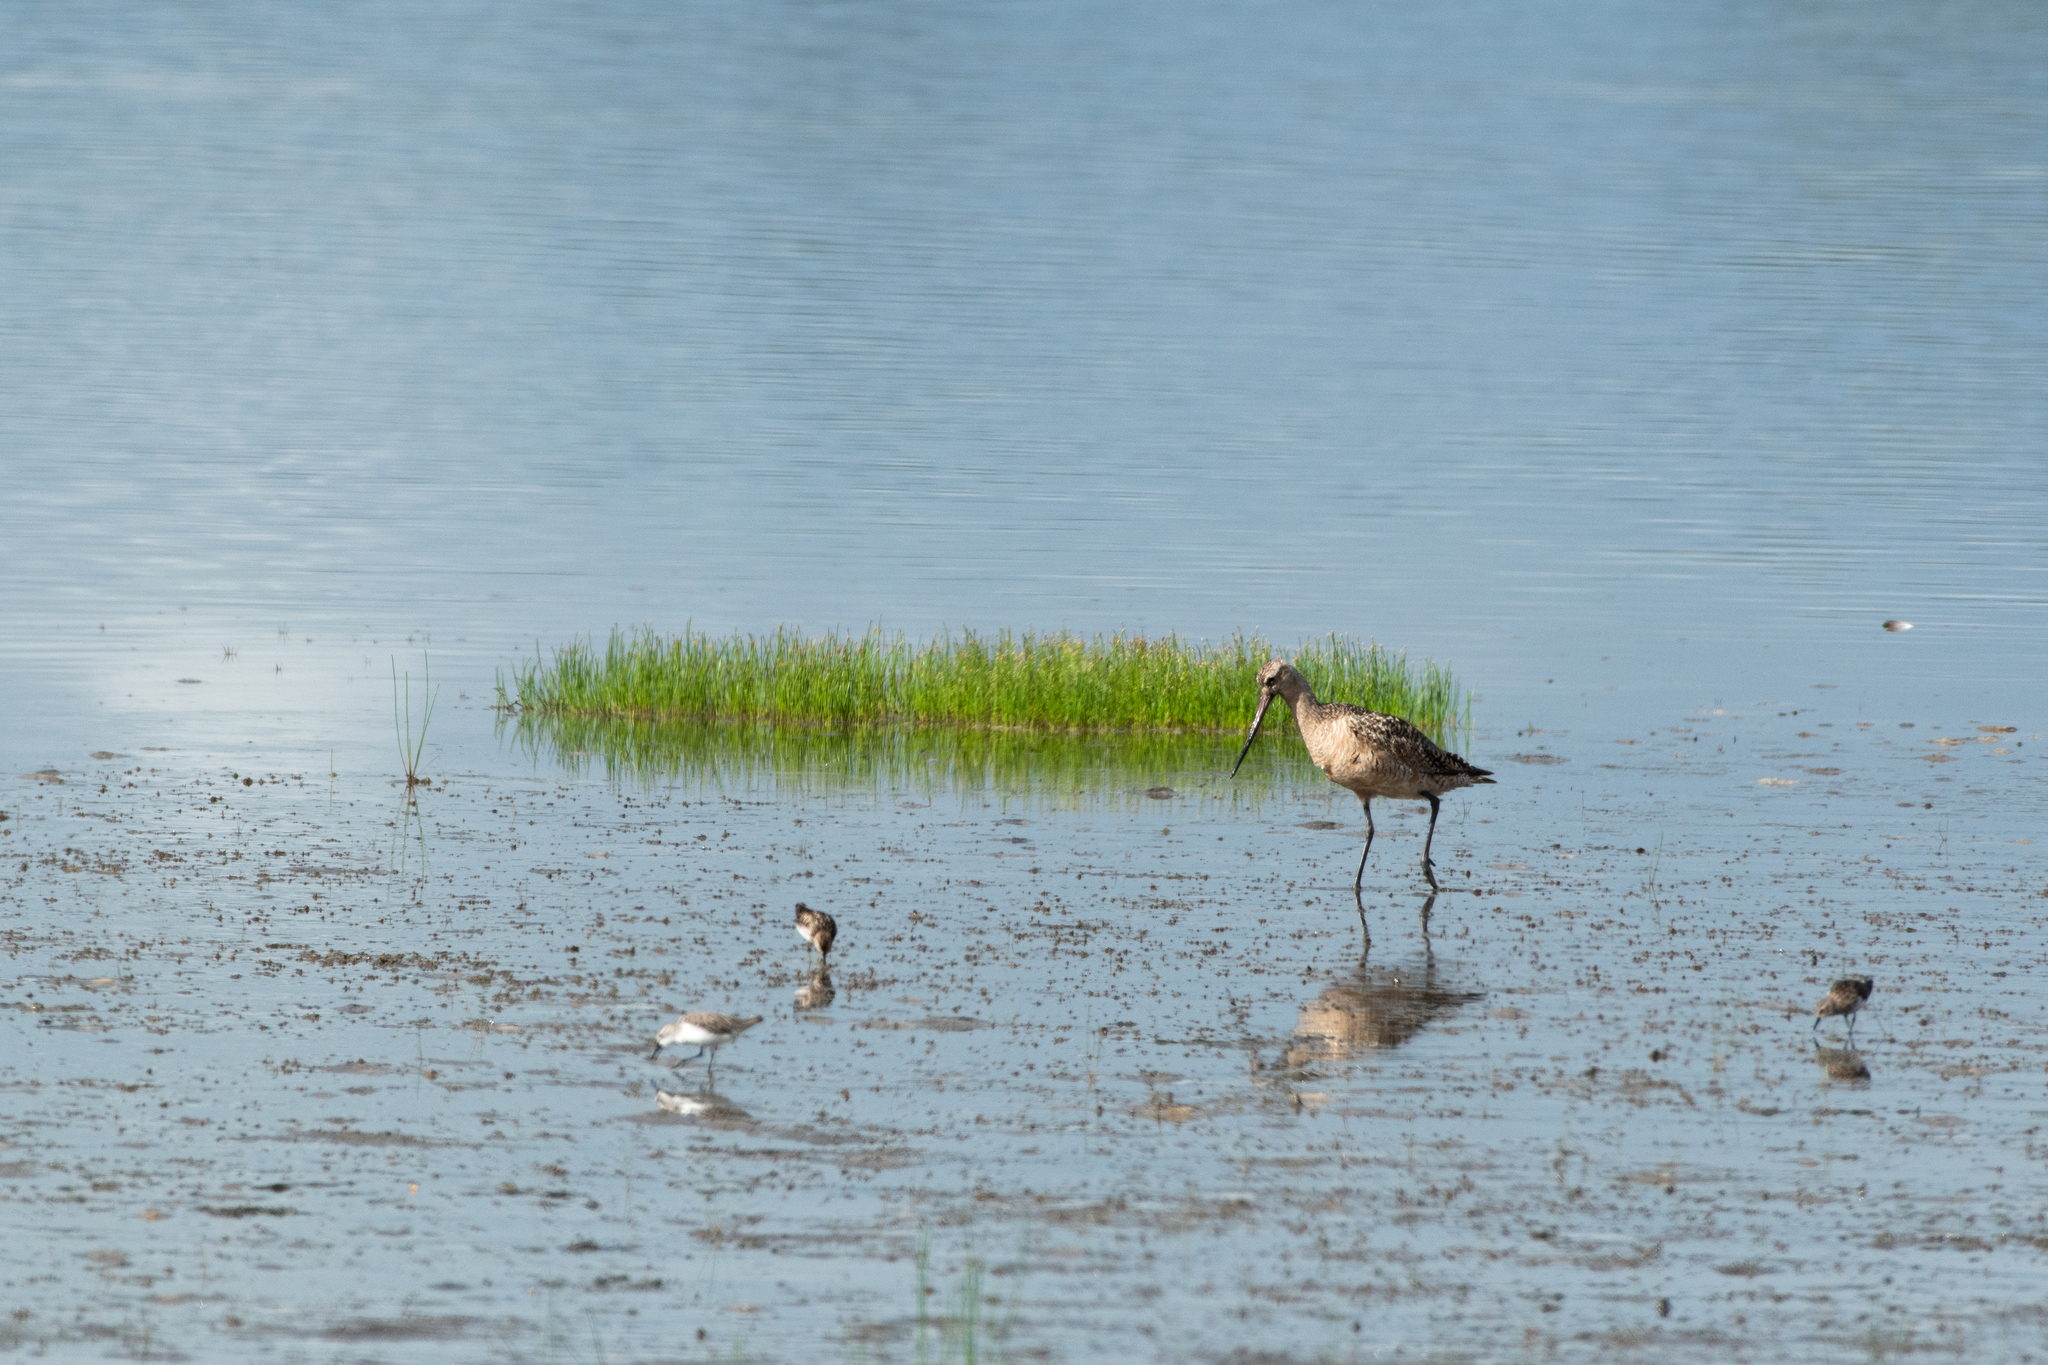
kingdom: Animalia
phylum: Chordata
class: Aves
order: Charadriiformes
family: Scolopacidae
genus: Limosa
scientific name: Limosa fedoa
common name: Marbled godwit
